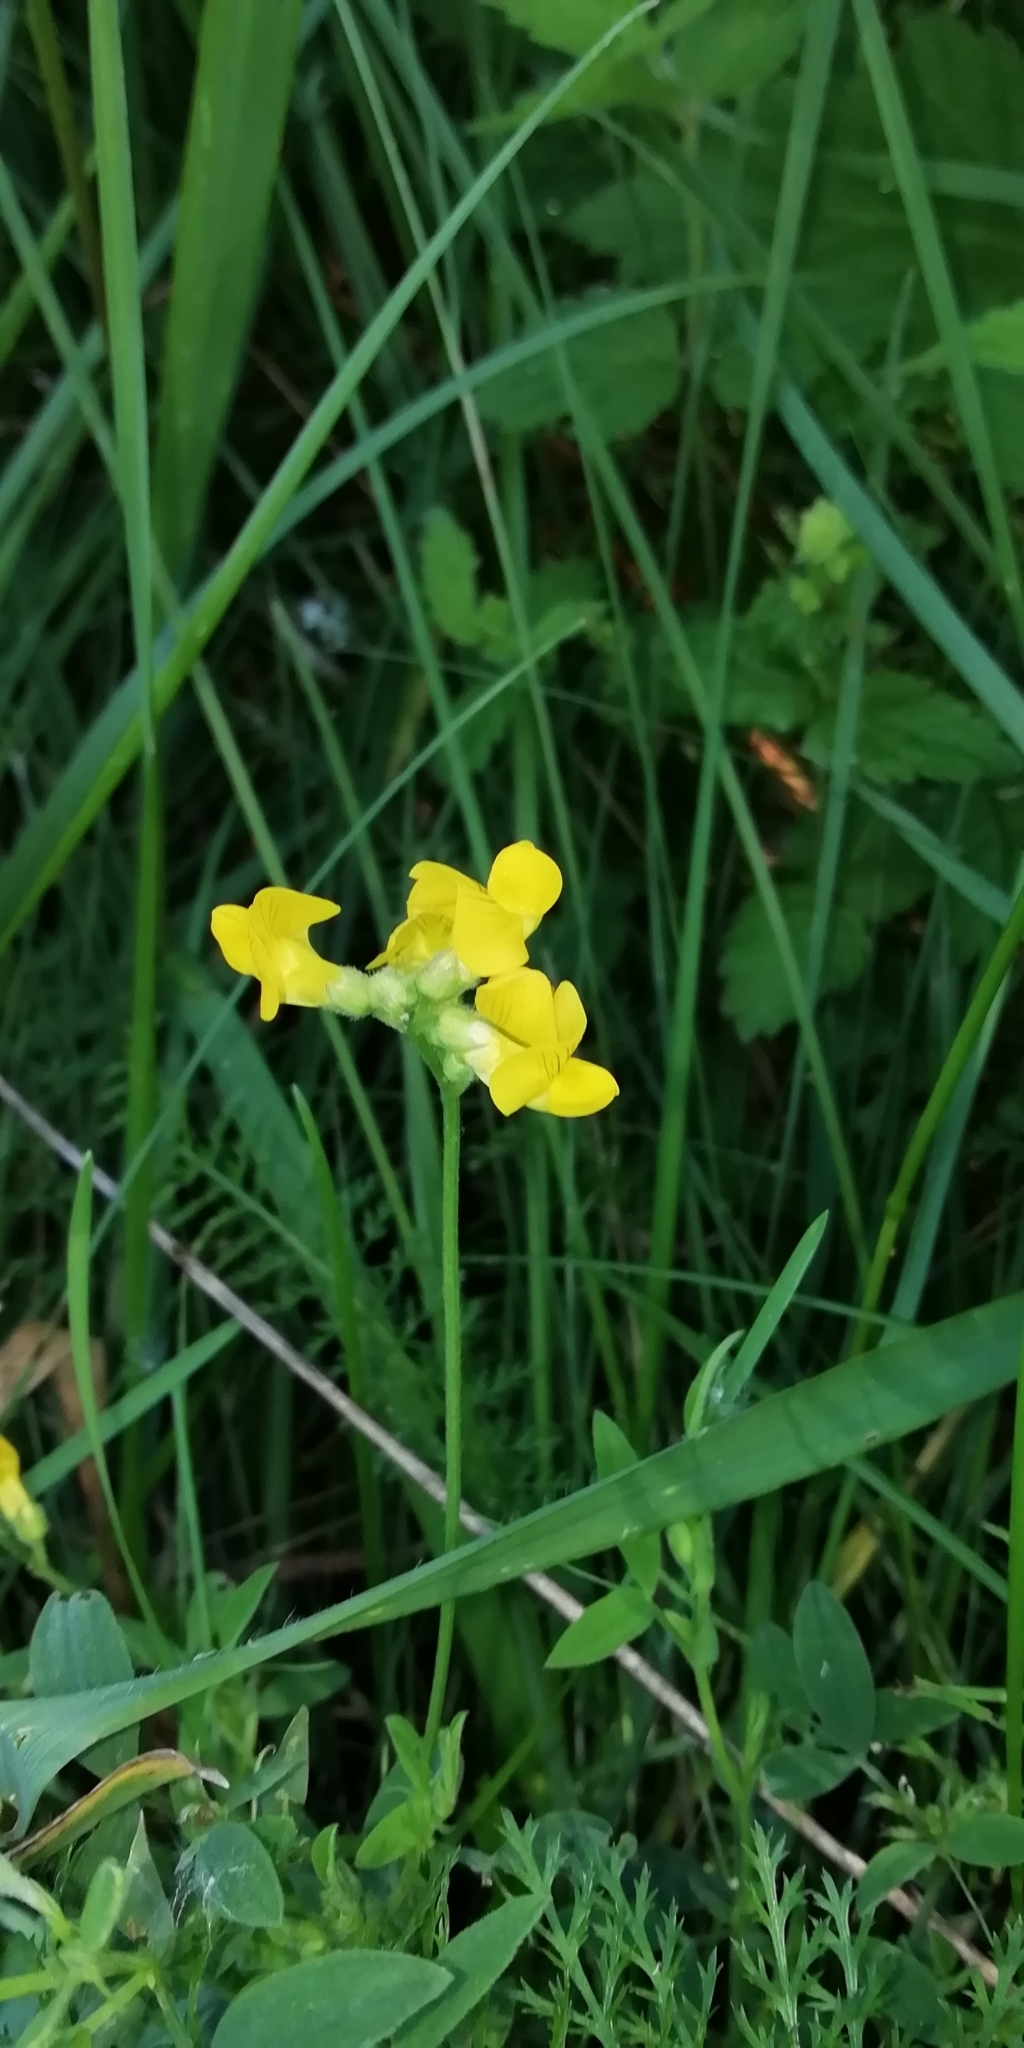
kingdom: Plantae
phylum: Tracheophyta
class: Magnoliopsida
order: Fabales
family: Fabaceae
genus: Lathyrus
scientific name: Lathyrus pratensis
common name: Meadow vetchling
